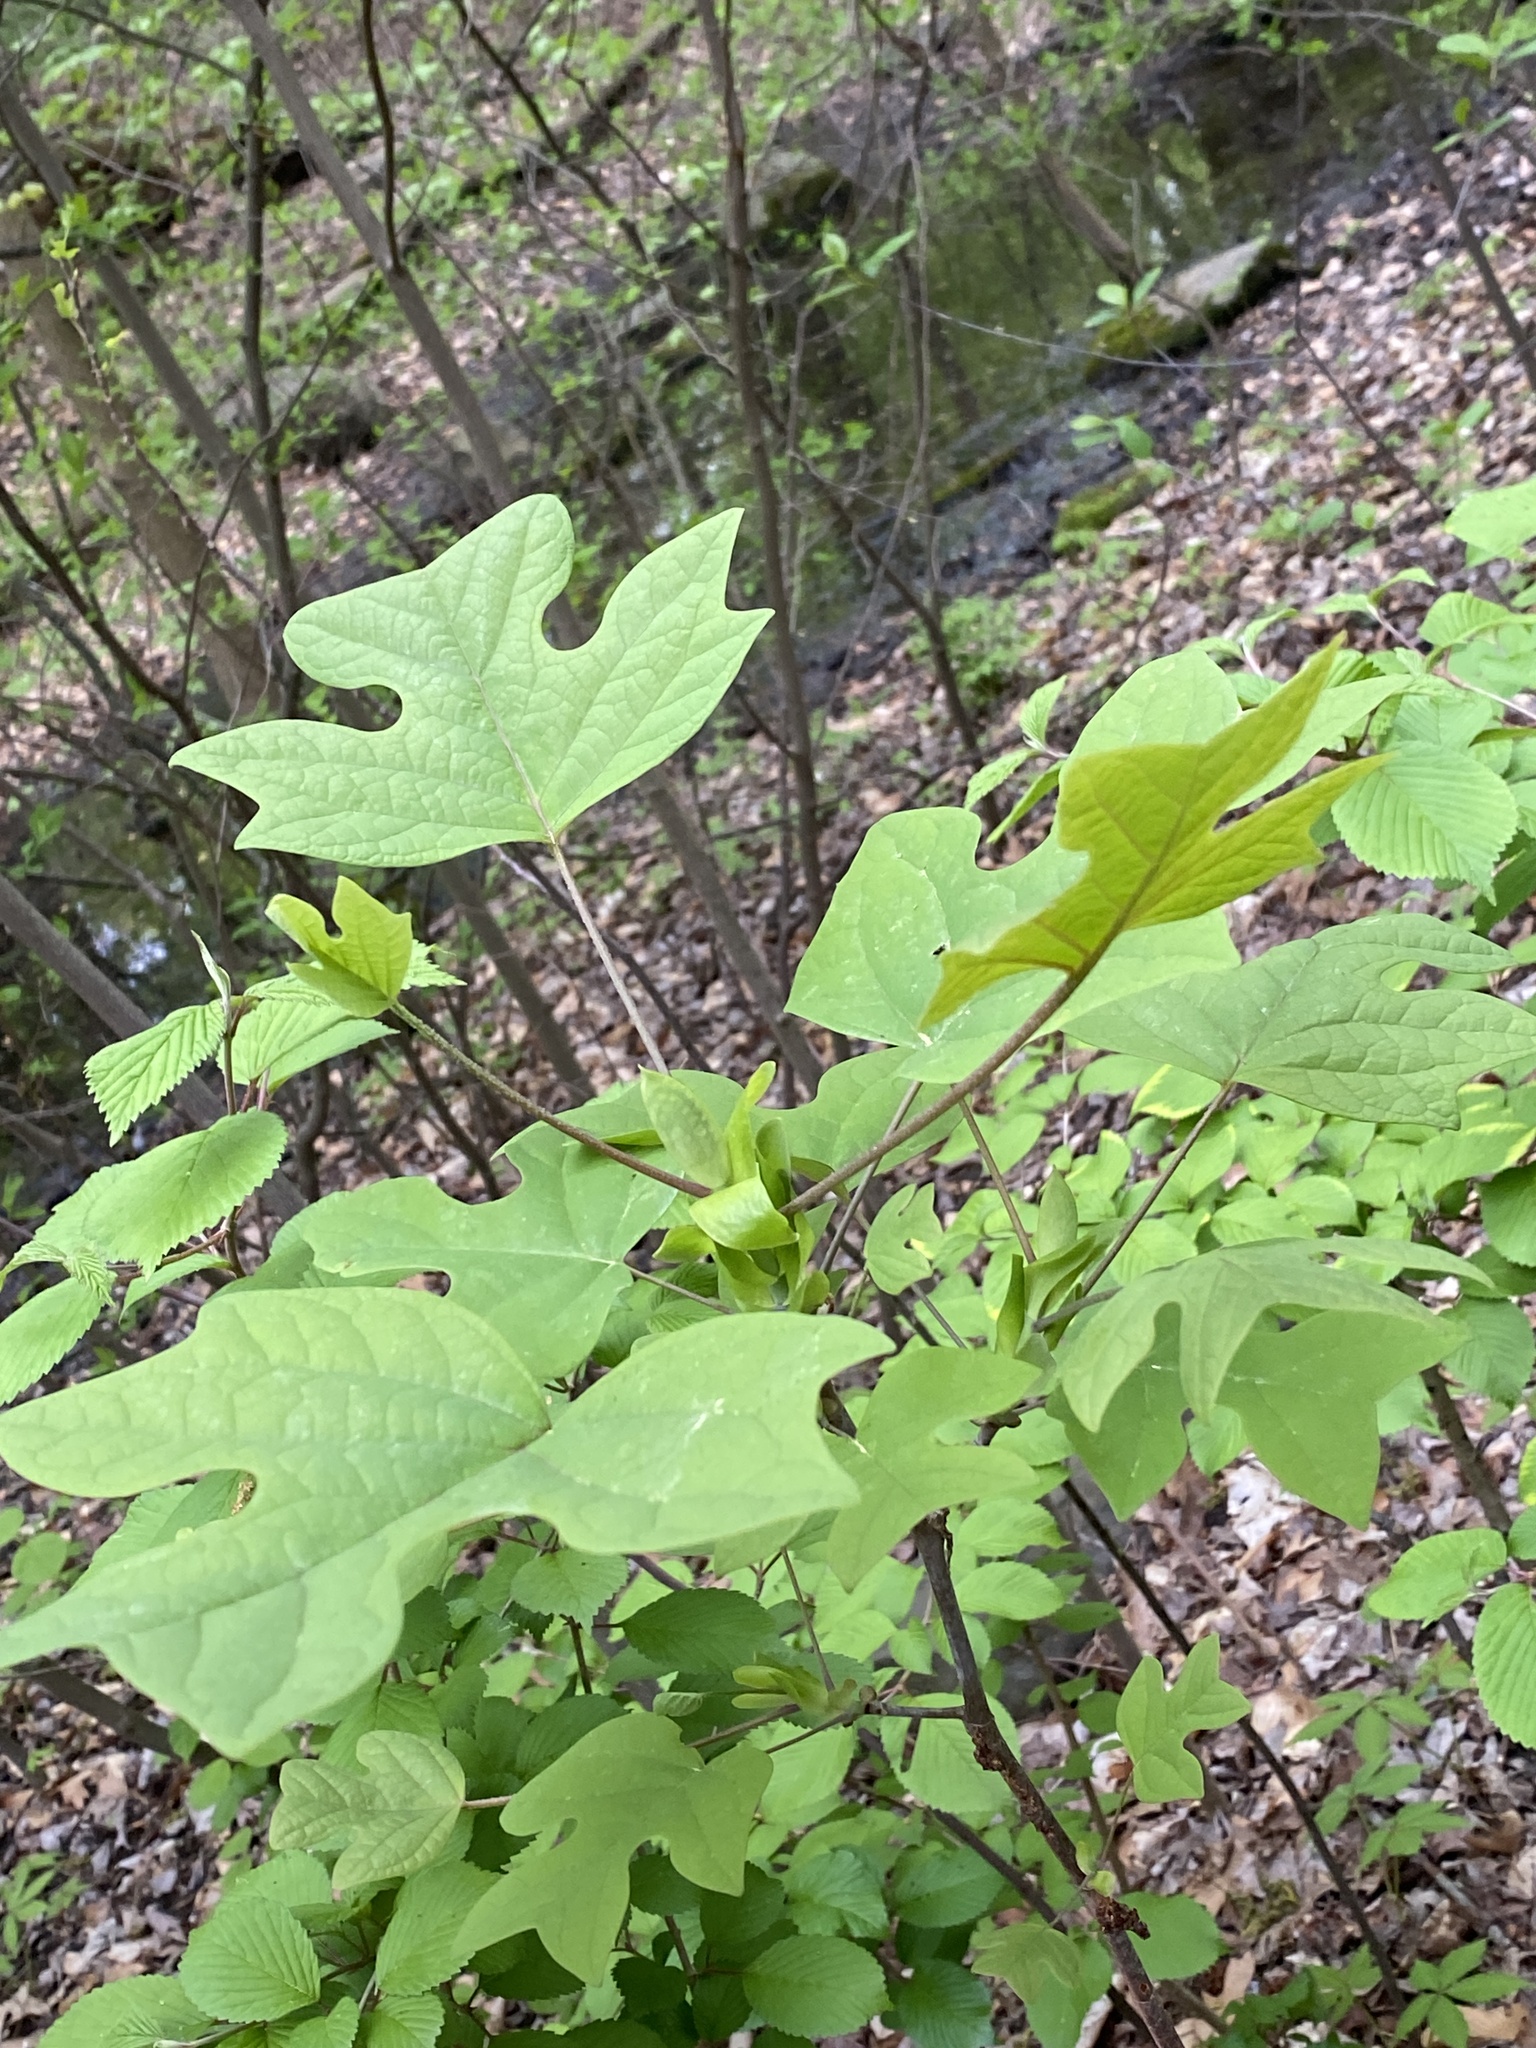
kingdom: Plantae
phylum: Tracheophyta
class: Magnoliopsida
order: Magnoliales
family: Magnoliaceae
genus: Liriodendron
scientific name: Liriodendron tulipifera
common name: Tulip tree
